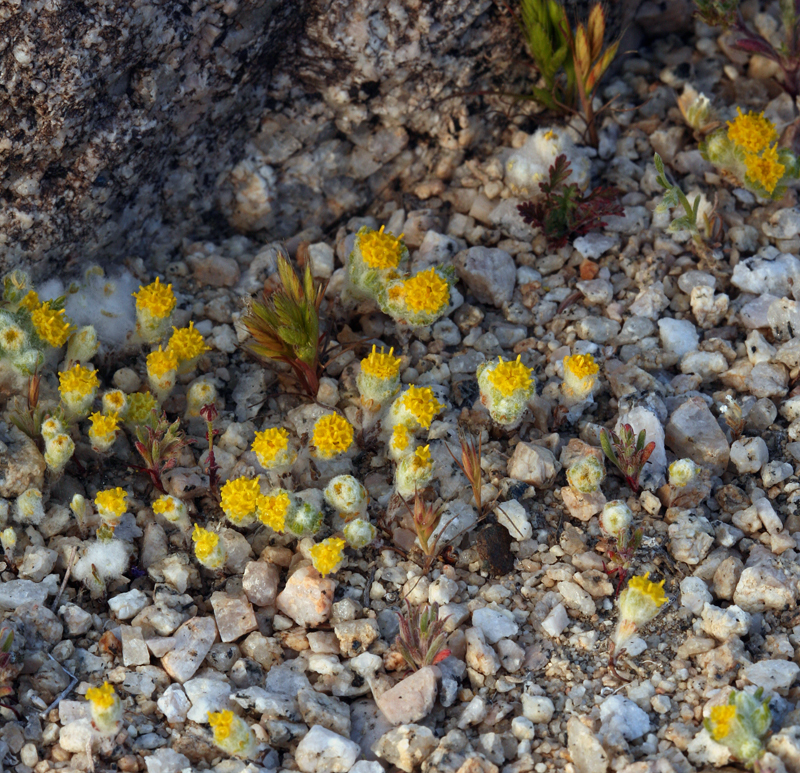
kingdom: Plantae
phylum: Tracheophyta
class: Magnoliopsida
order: Asterales
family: Asteraceae
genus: Eriophyllum
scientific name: Eriophyllum pringlei
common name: Pringle's woolly-sunflower
